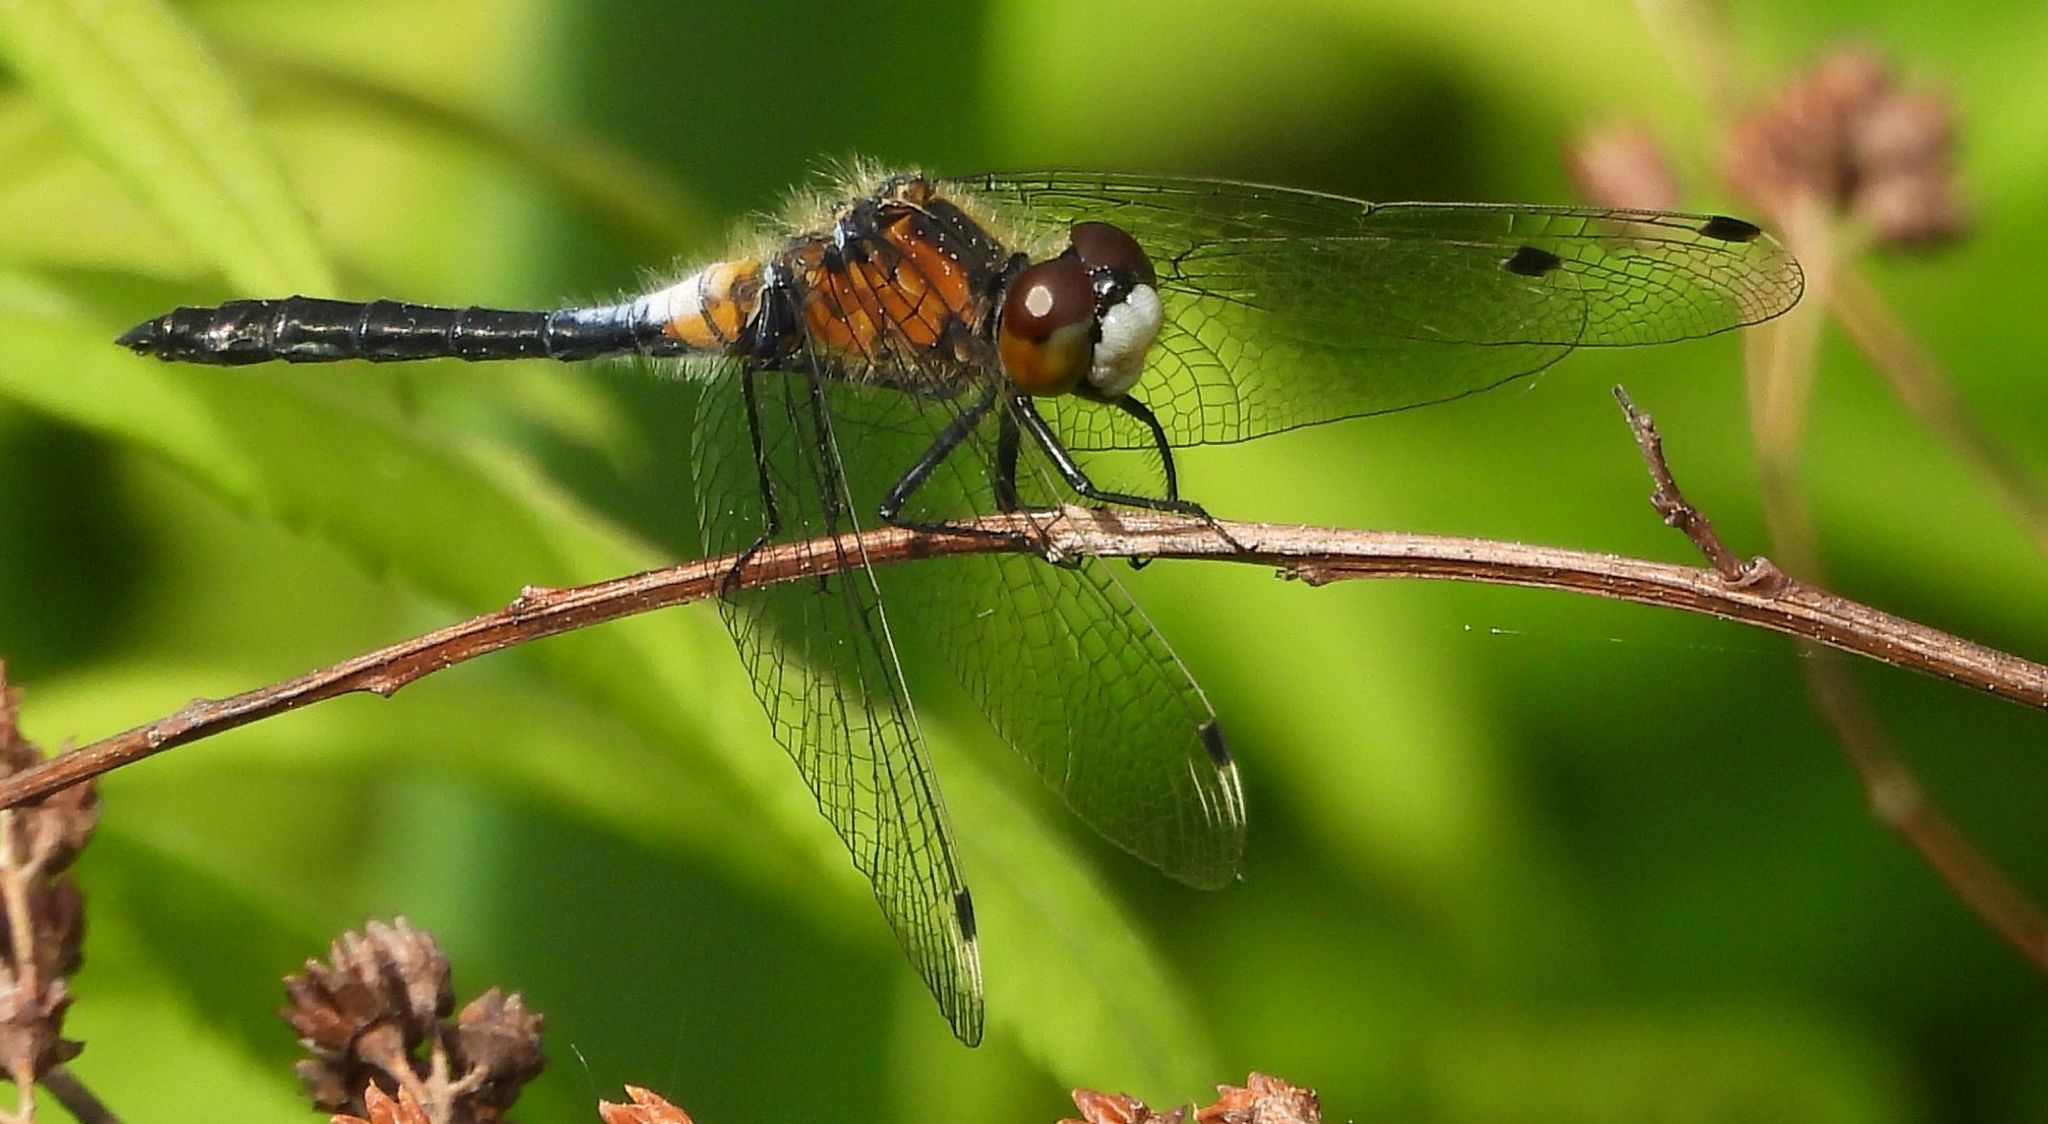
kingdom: Animalia
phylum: Arthropoda
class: Insecta
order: Odonata
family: Libellulidae
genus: Leucorrhinia
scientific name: Leucorrhinia frigida
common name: Frosted whiteface
